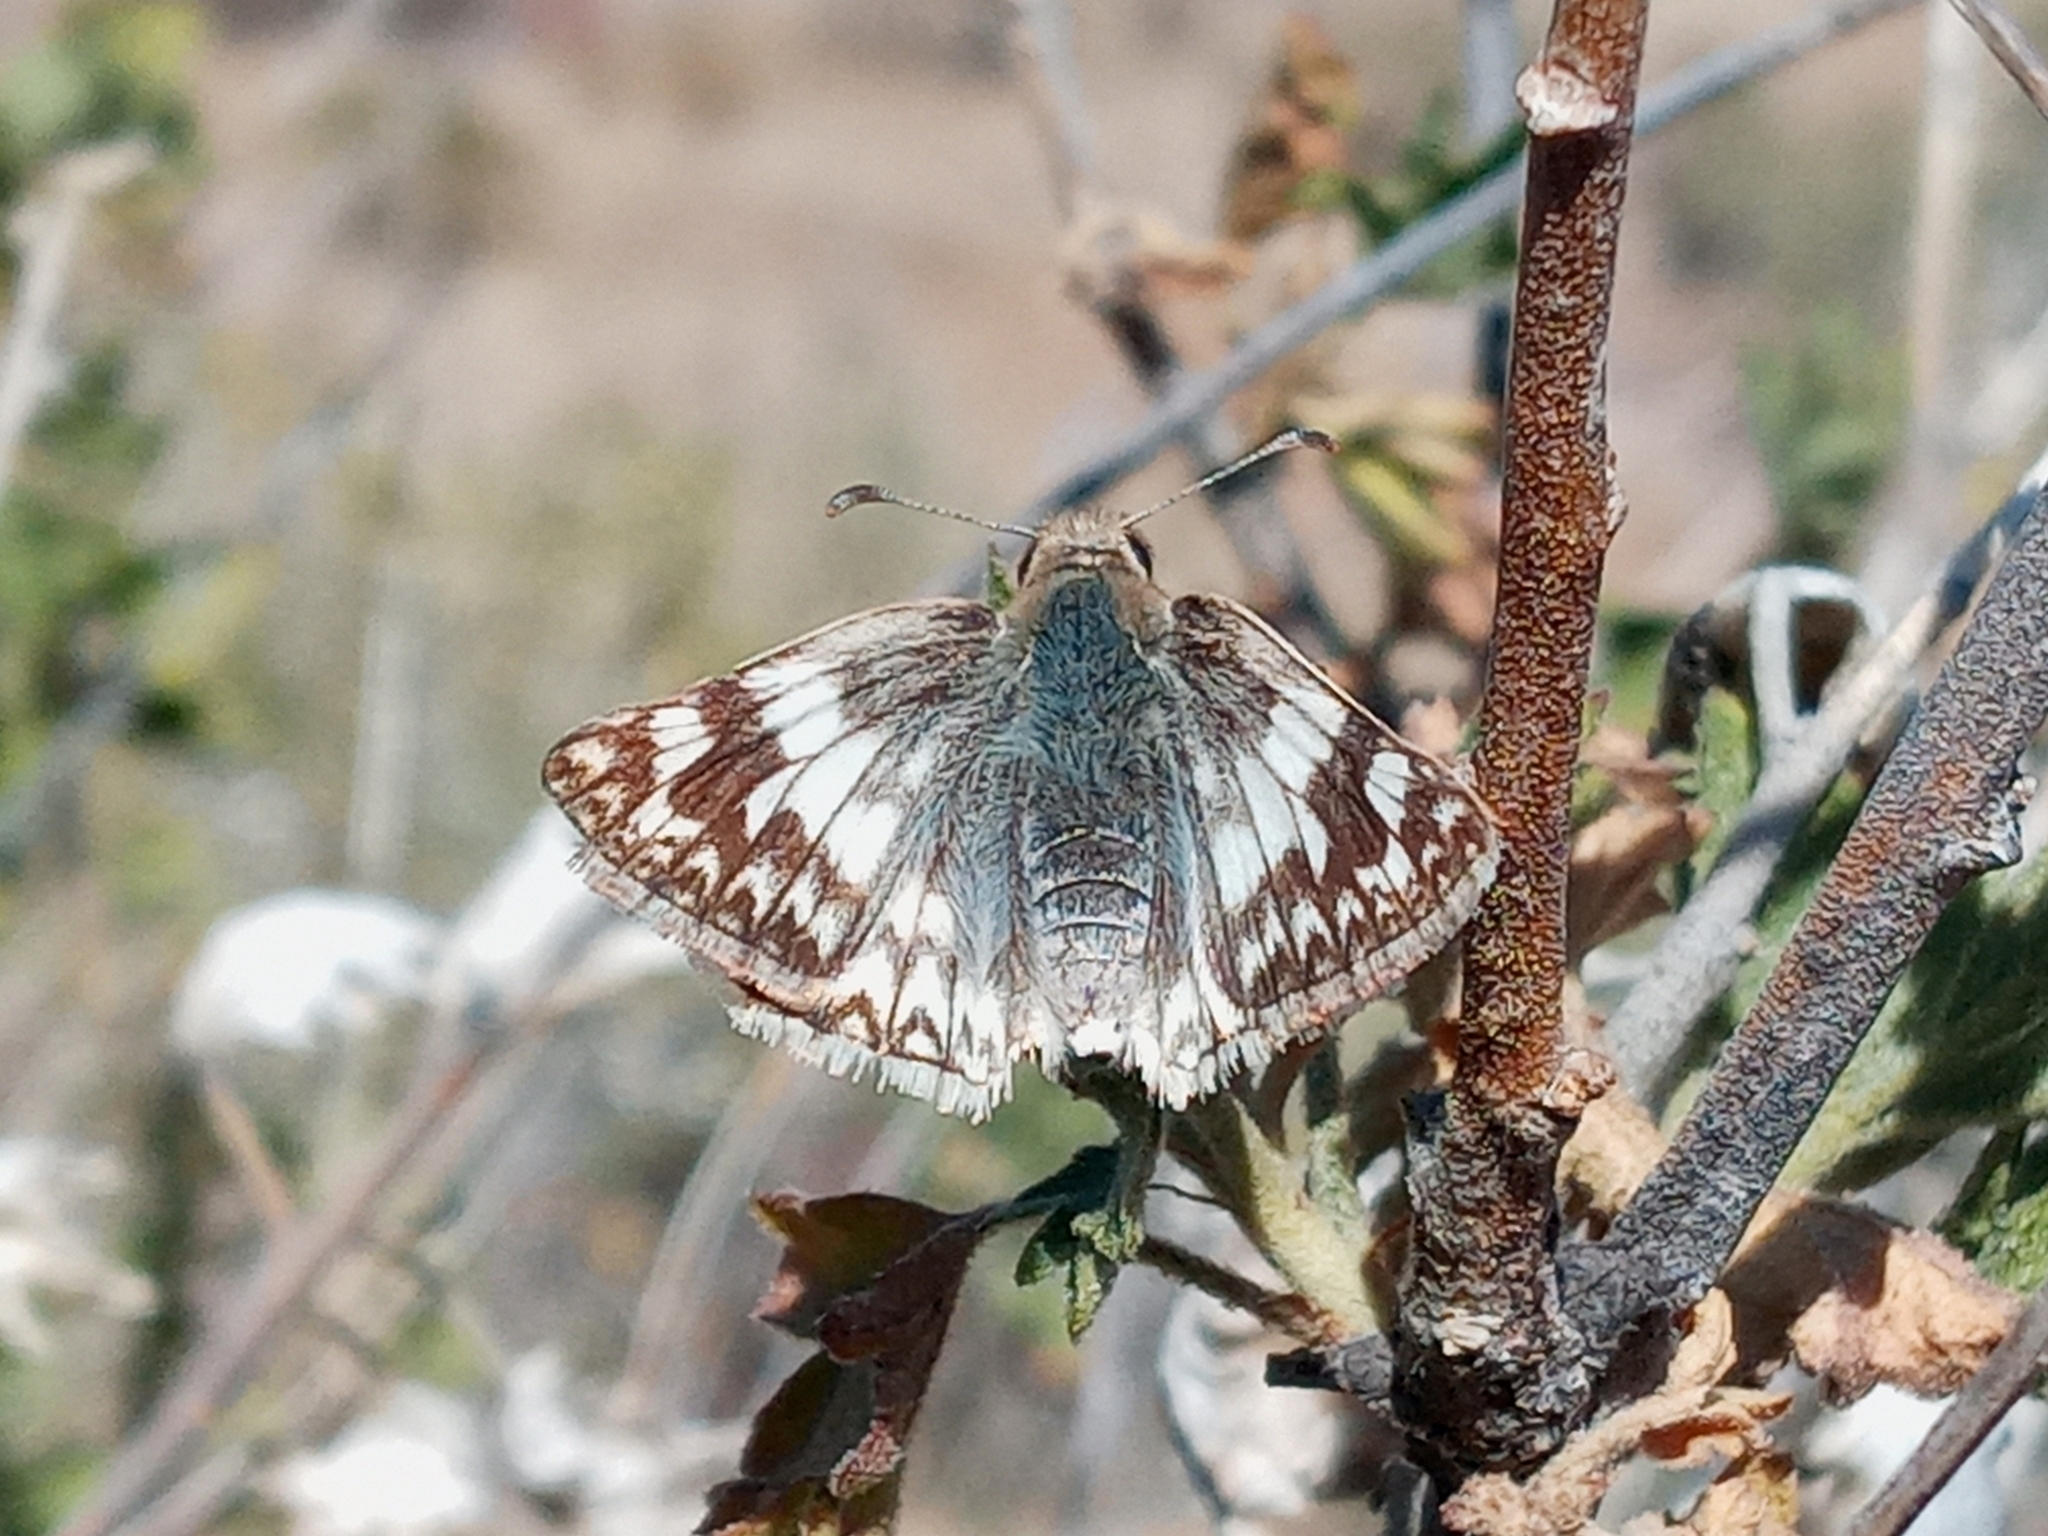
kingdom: Animalia
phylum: Arthropoda
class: Insecta
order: Lepidoptera
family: Hesperiidae
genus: Heliopetes
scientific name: Heliopetes ericetorum
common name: Northern white-skipper
